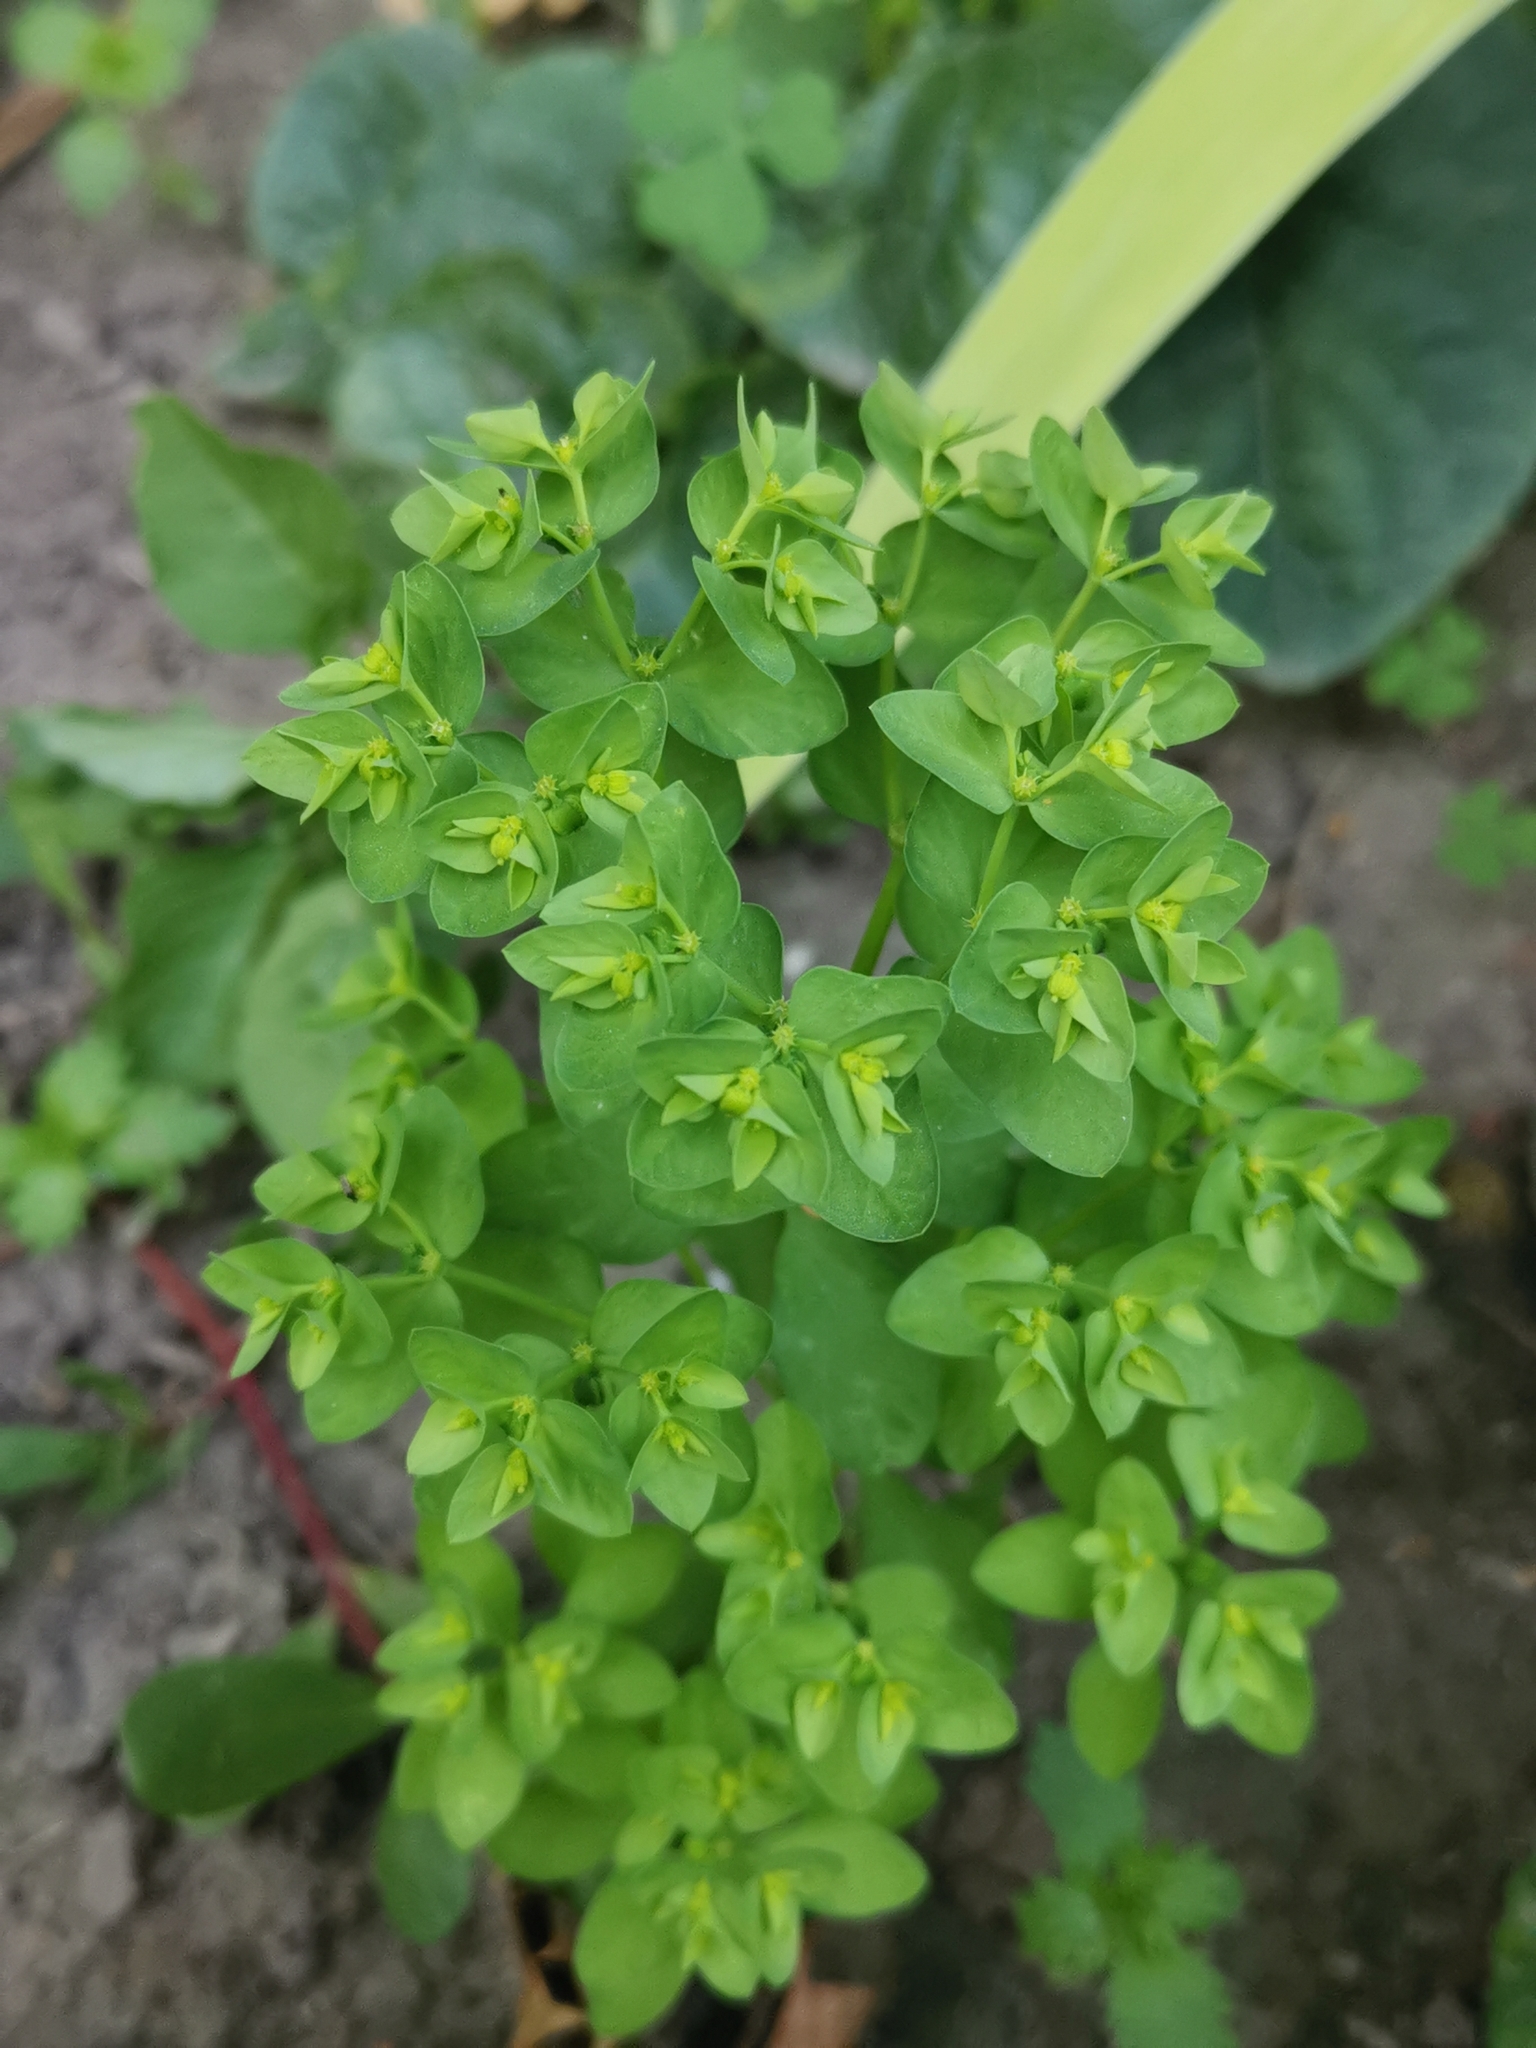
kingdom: Plantae
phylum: Tracheophyta
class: Magnoliopsida
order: Malpighiales
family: Euphorbiaceae
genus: Euphorbia
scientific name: Euphorbia peplus
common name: Petty spurge
